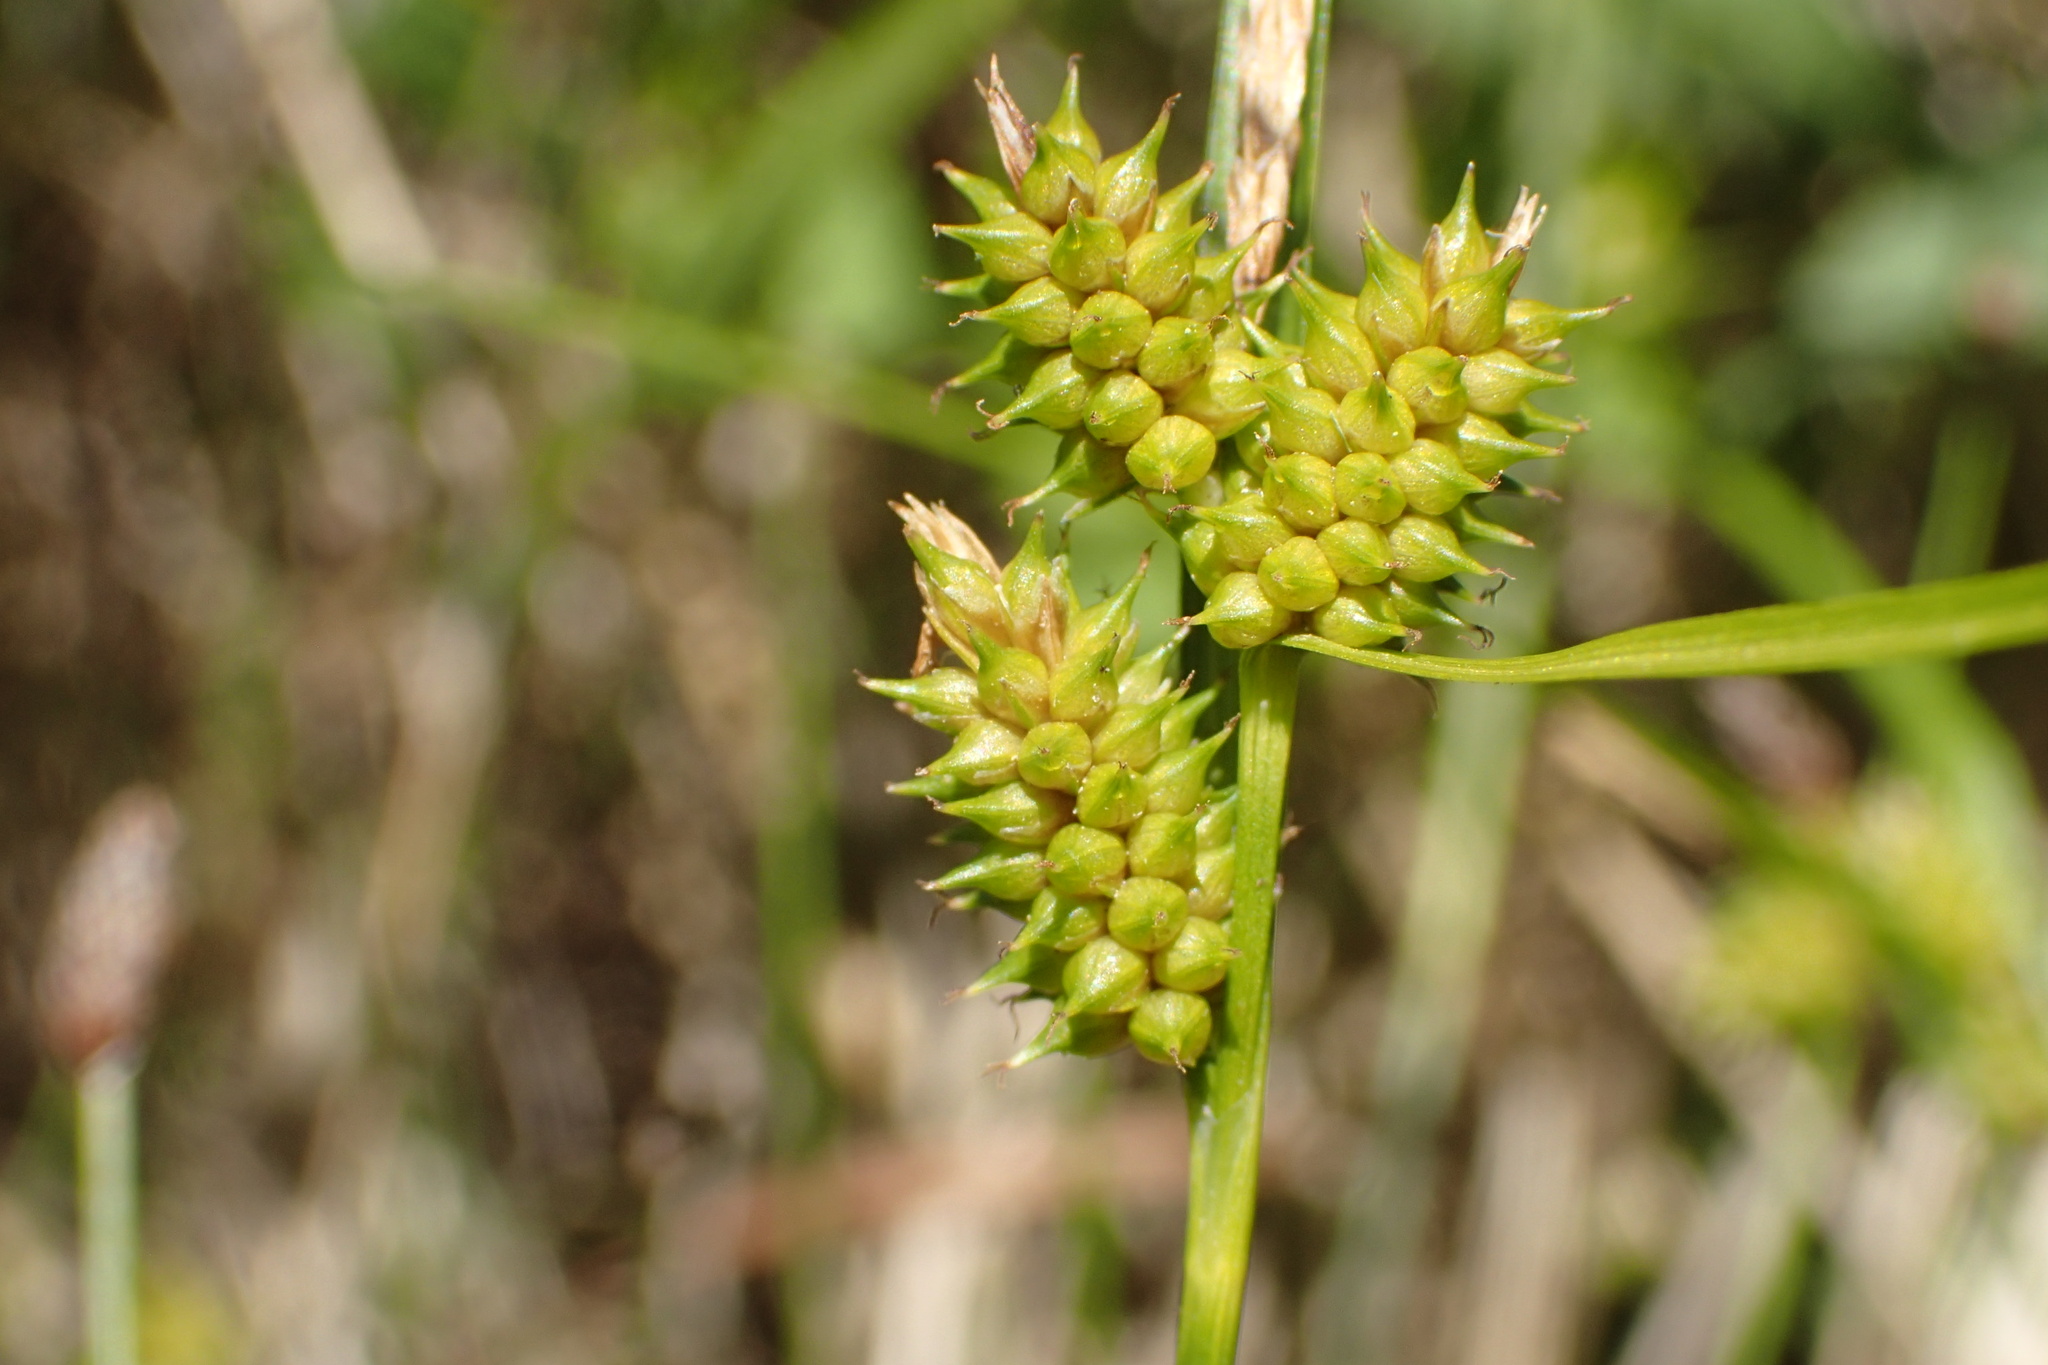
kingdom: Plantae
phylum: Tracheophyta
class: Liliopsida
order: Poales
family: Cyperaceae
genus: Carex
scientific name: Carex
